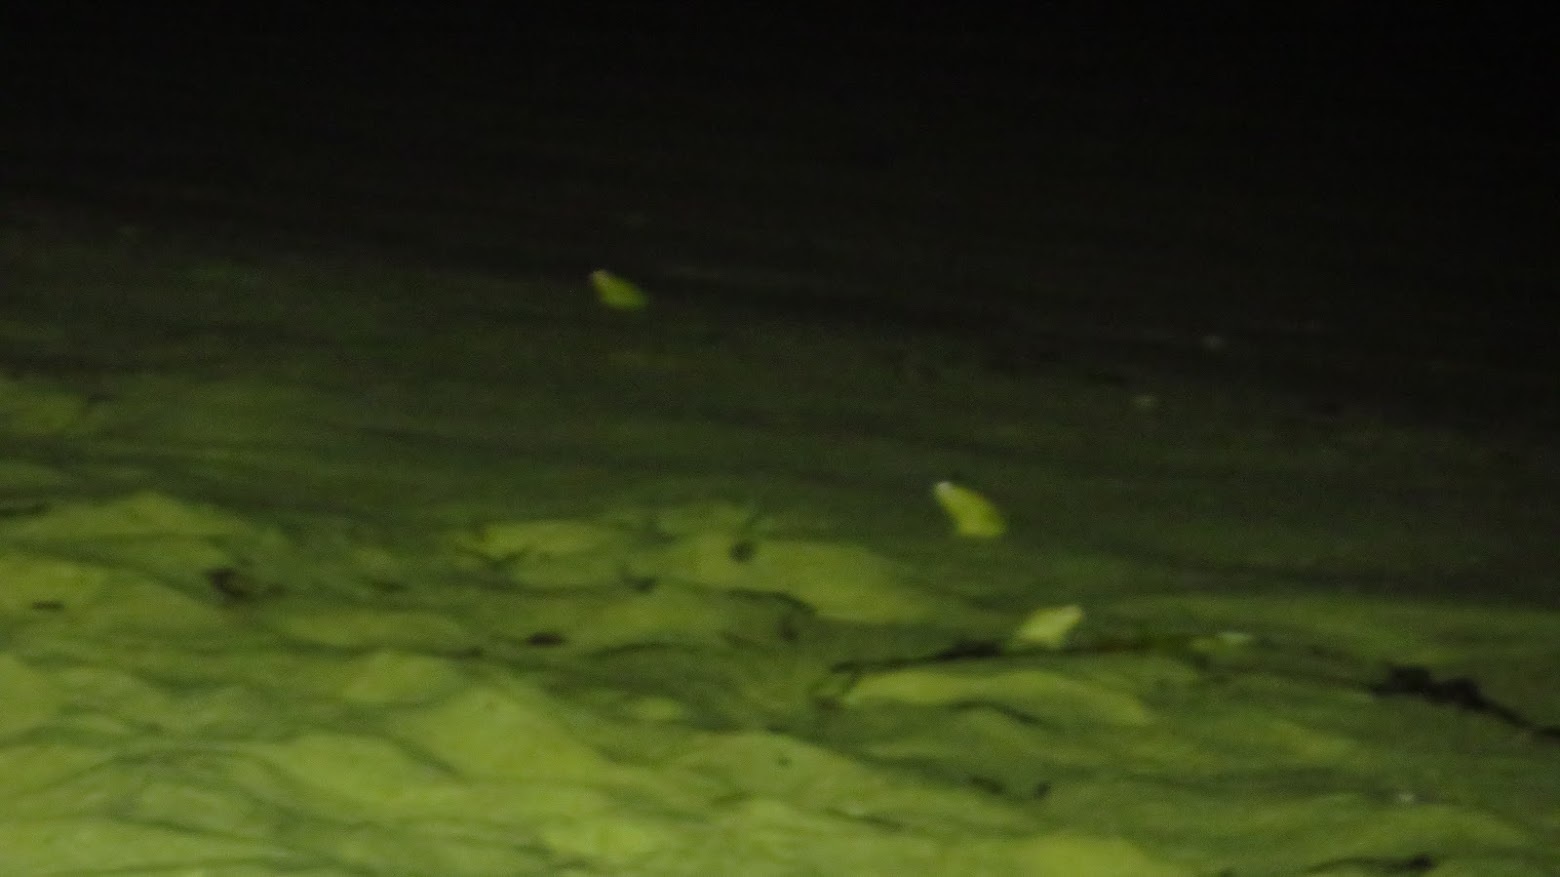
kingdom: Animalia
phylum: Chordata
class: Amphibia
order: Anura
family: Bufonidae
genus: Anaxyrus
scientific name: Anaxyrus fowleri
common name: Fowler's toad
